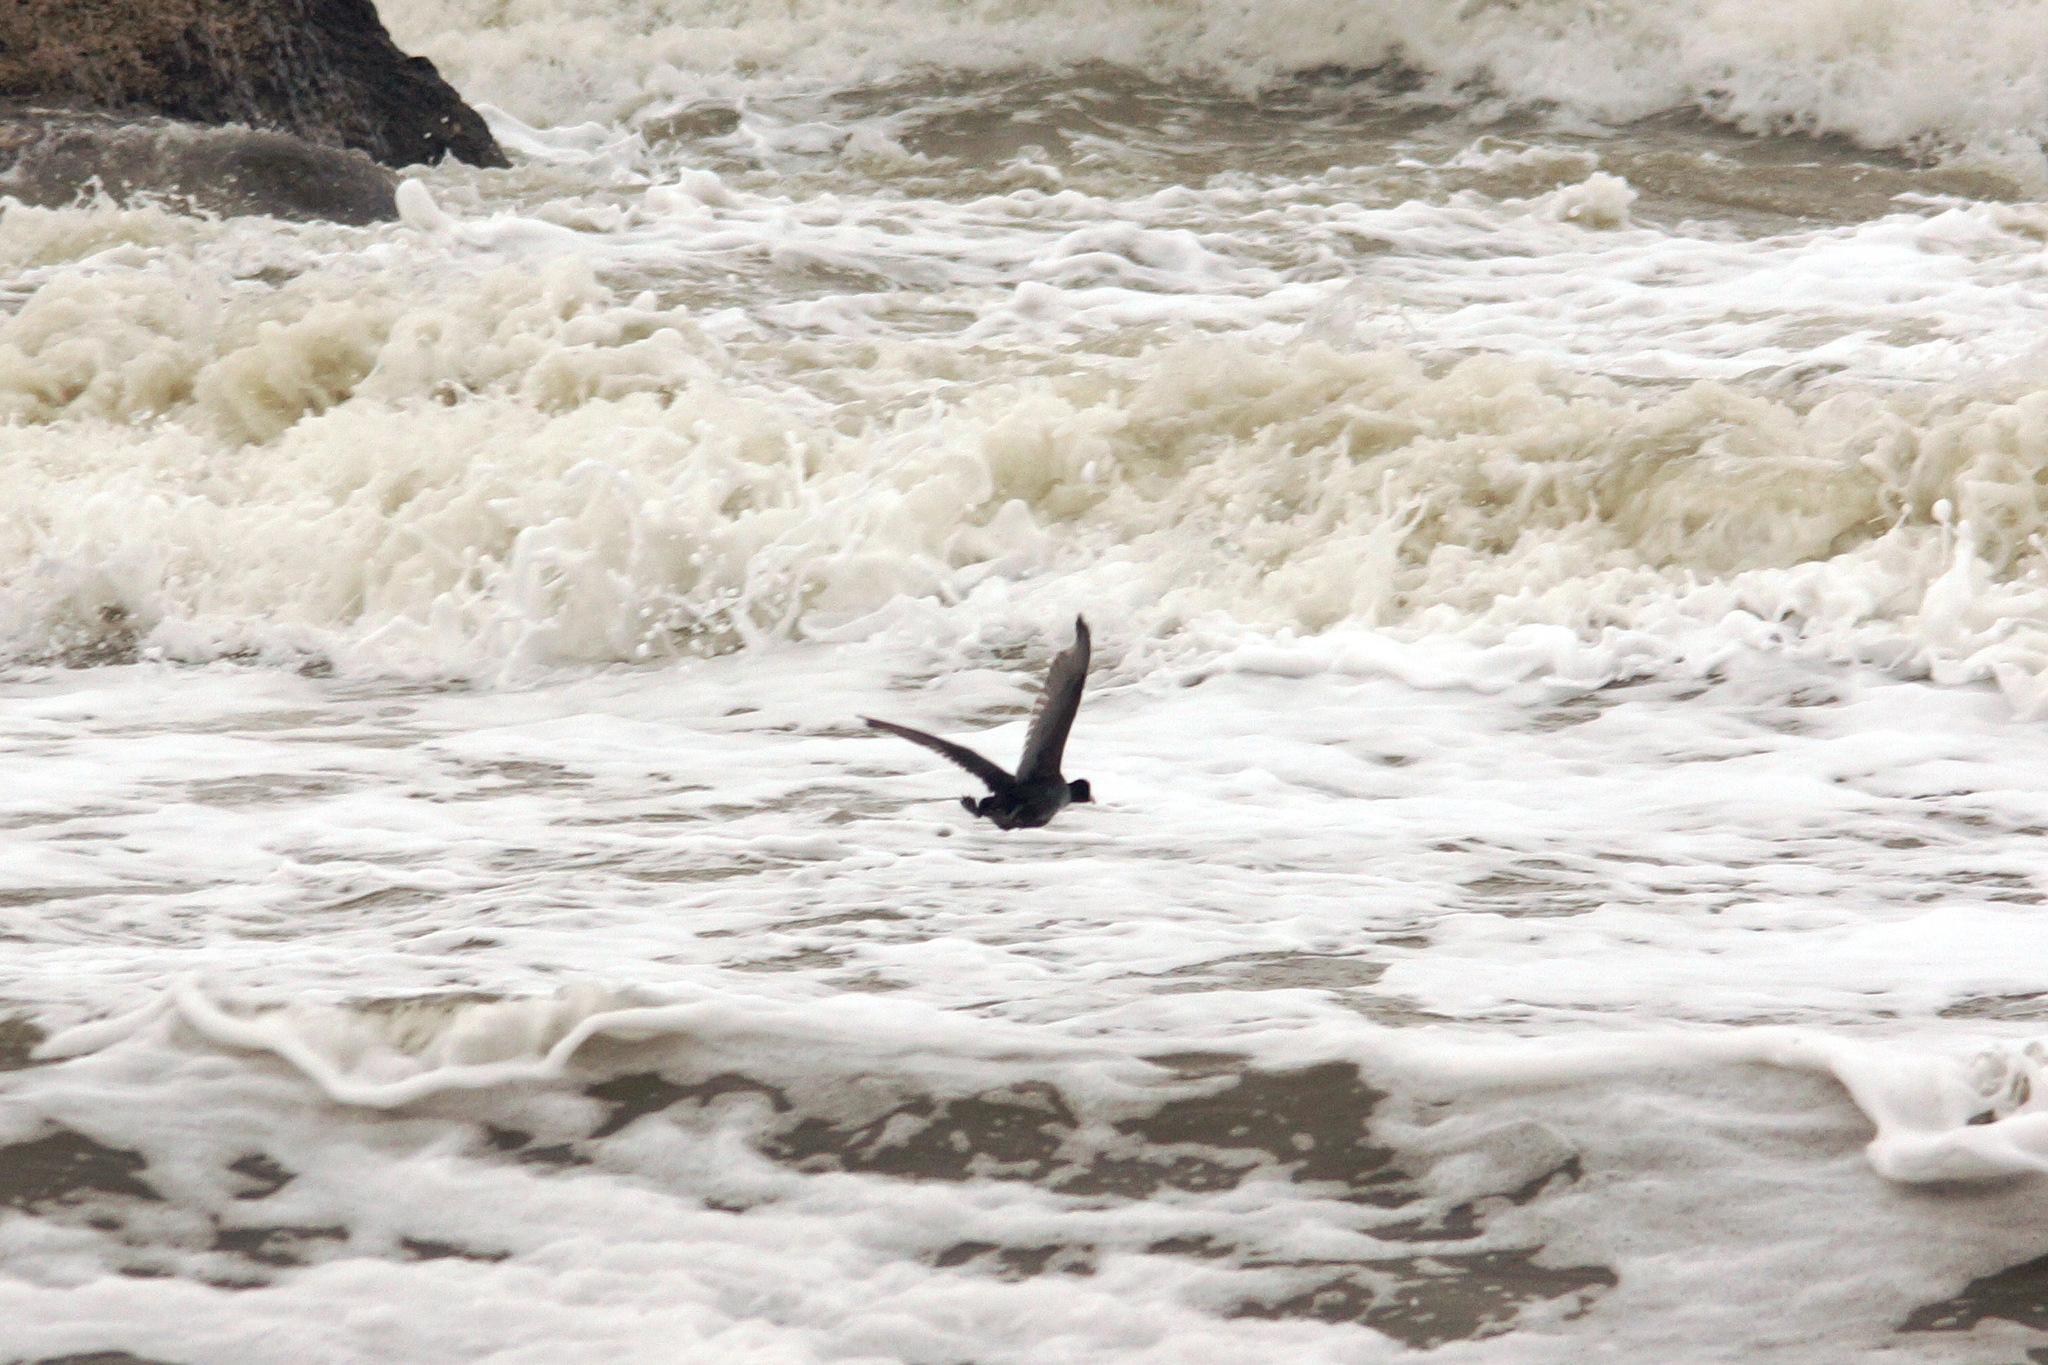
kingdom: Animalia
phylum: Chordata
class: Aves
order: Gruiformes
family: Rallidae
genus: Fulica
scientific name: Fulica atra
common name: Eurasian coot
